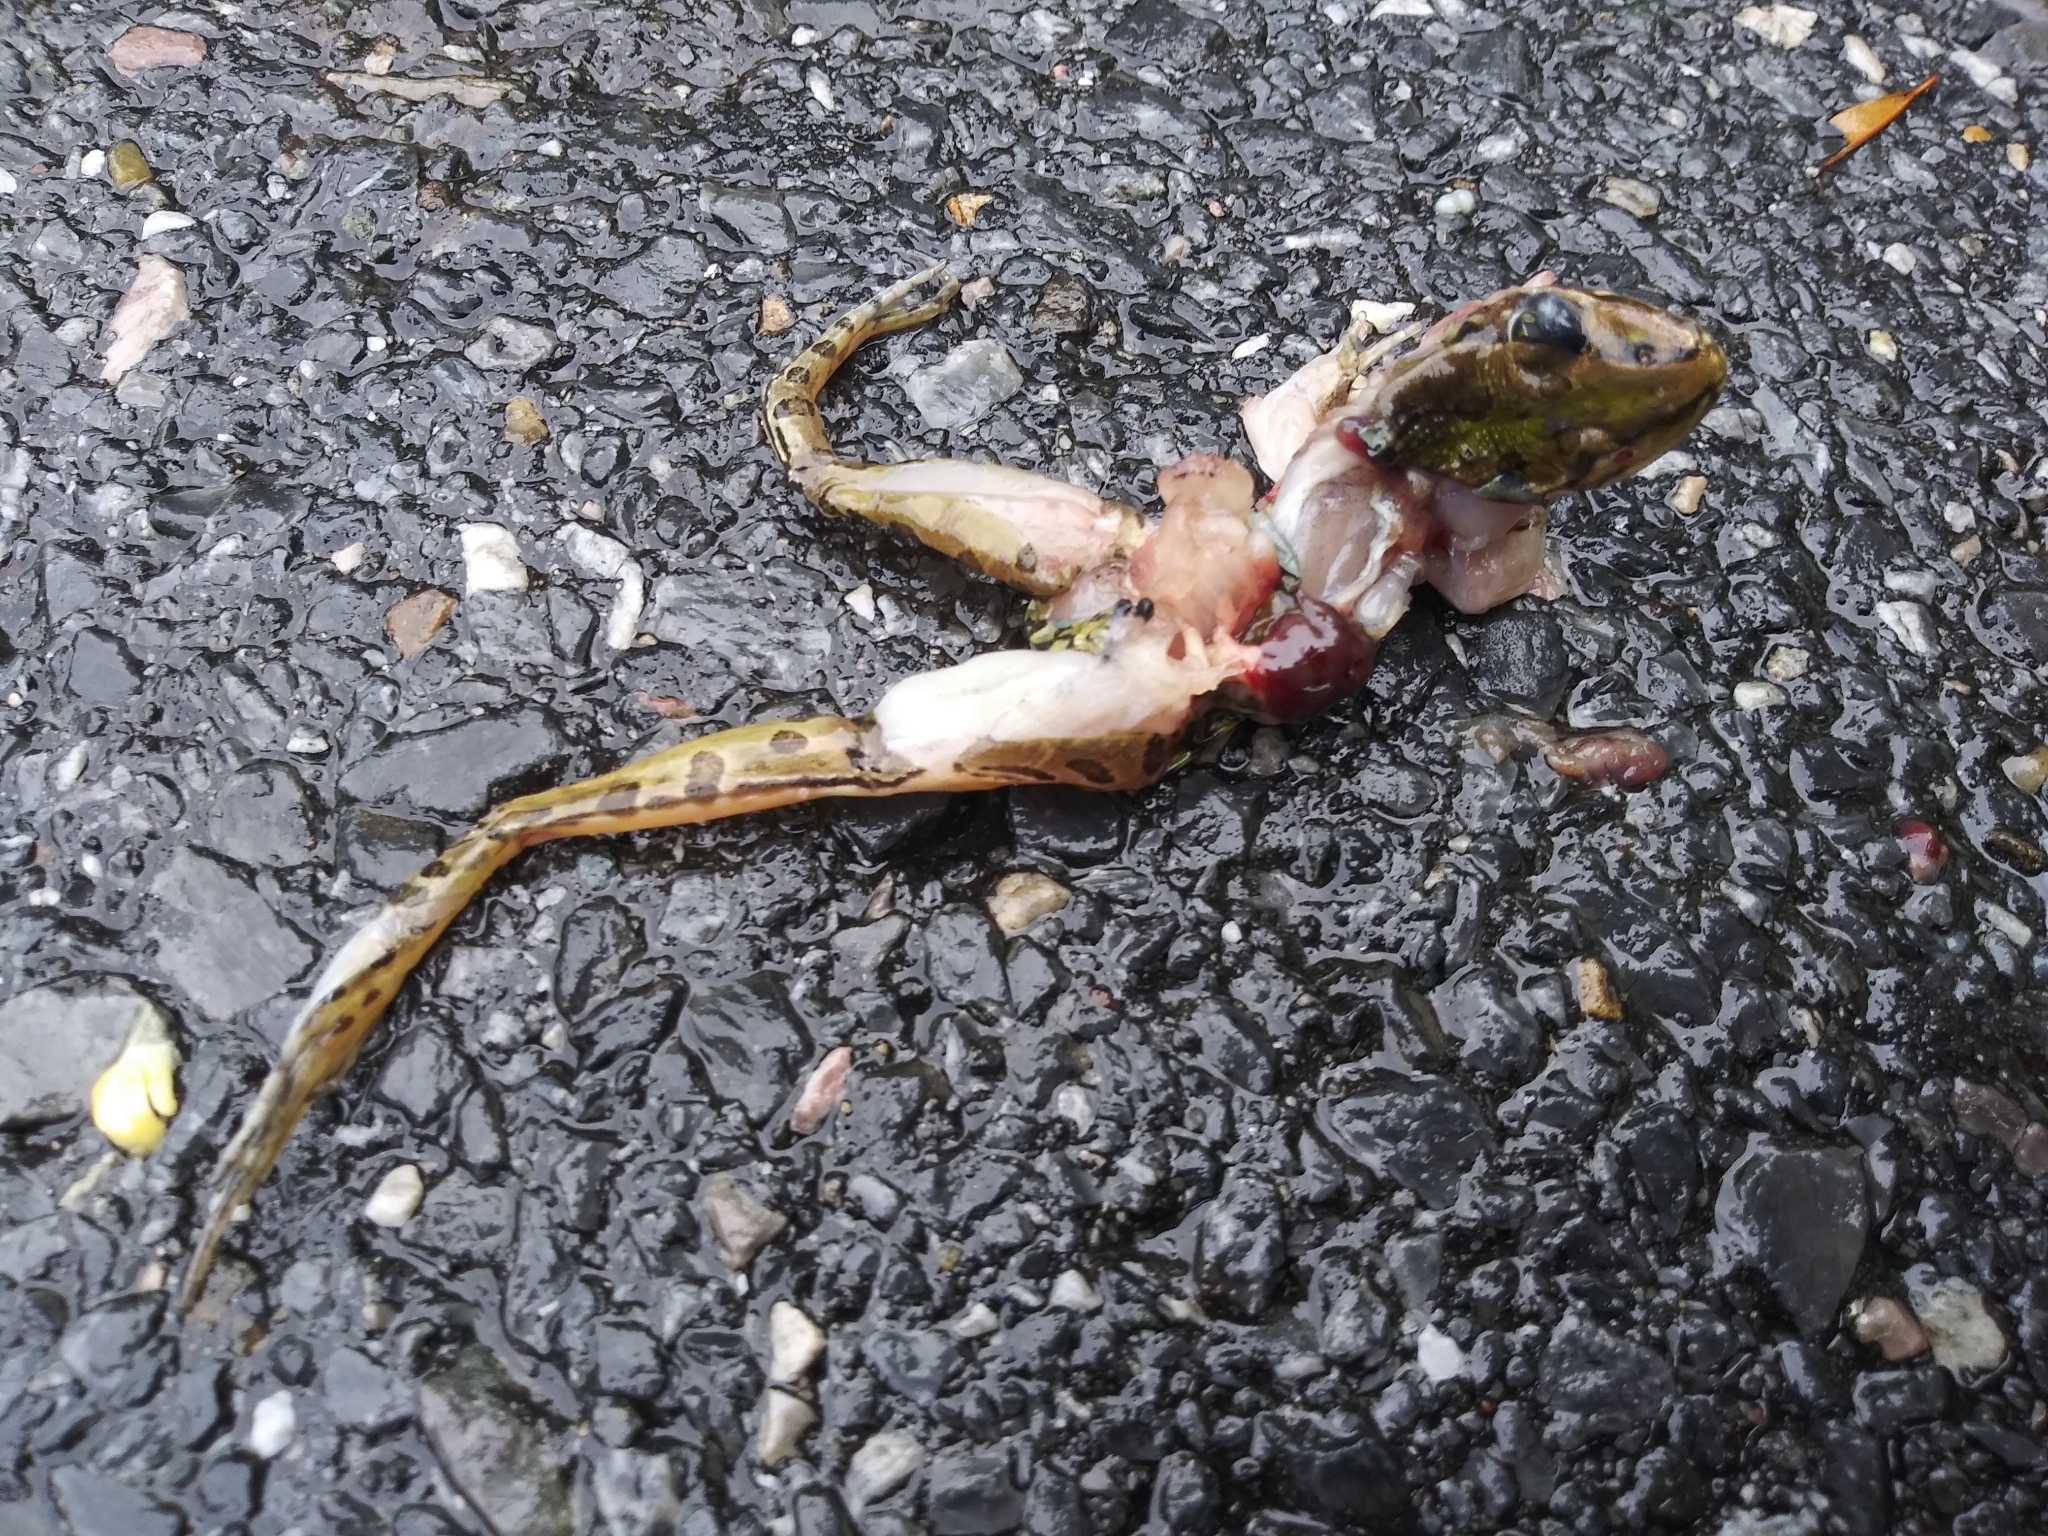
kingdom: Animalia
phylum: Chordata
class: Amphibia
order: Anura
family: Ranidae
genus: Lithobates
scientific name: Lithobates sphenocephalus
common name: Southern leopard frog
